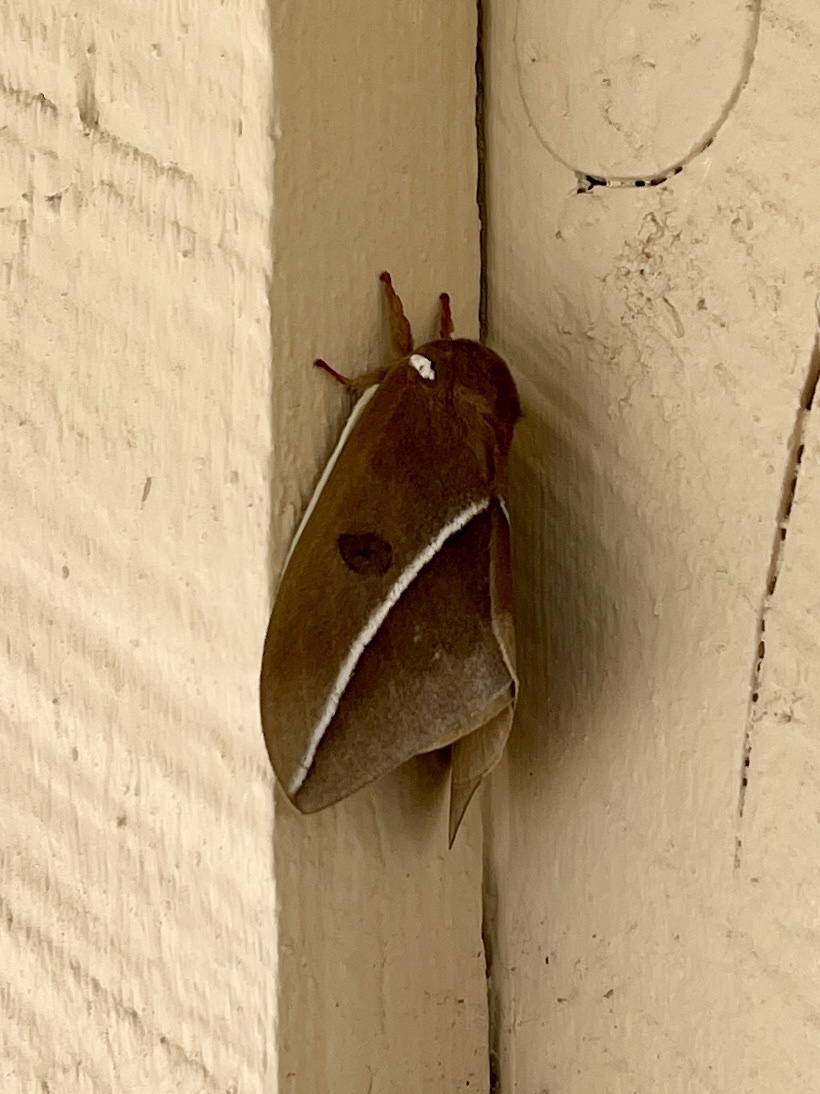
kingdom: Animalia
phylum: Arthropoda
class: Insecta
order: Lepidoptera
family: Saturniidae
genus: Automeris
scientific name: Automeris zephyria
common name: Zephyr eyed silkmoth
